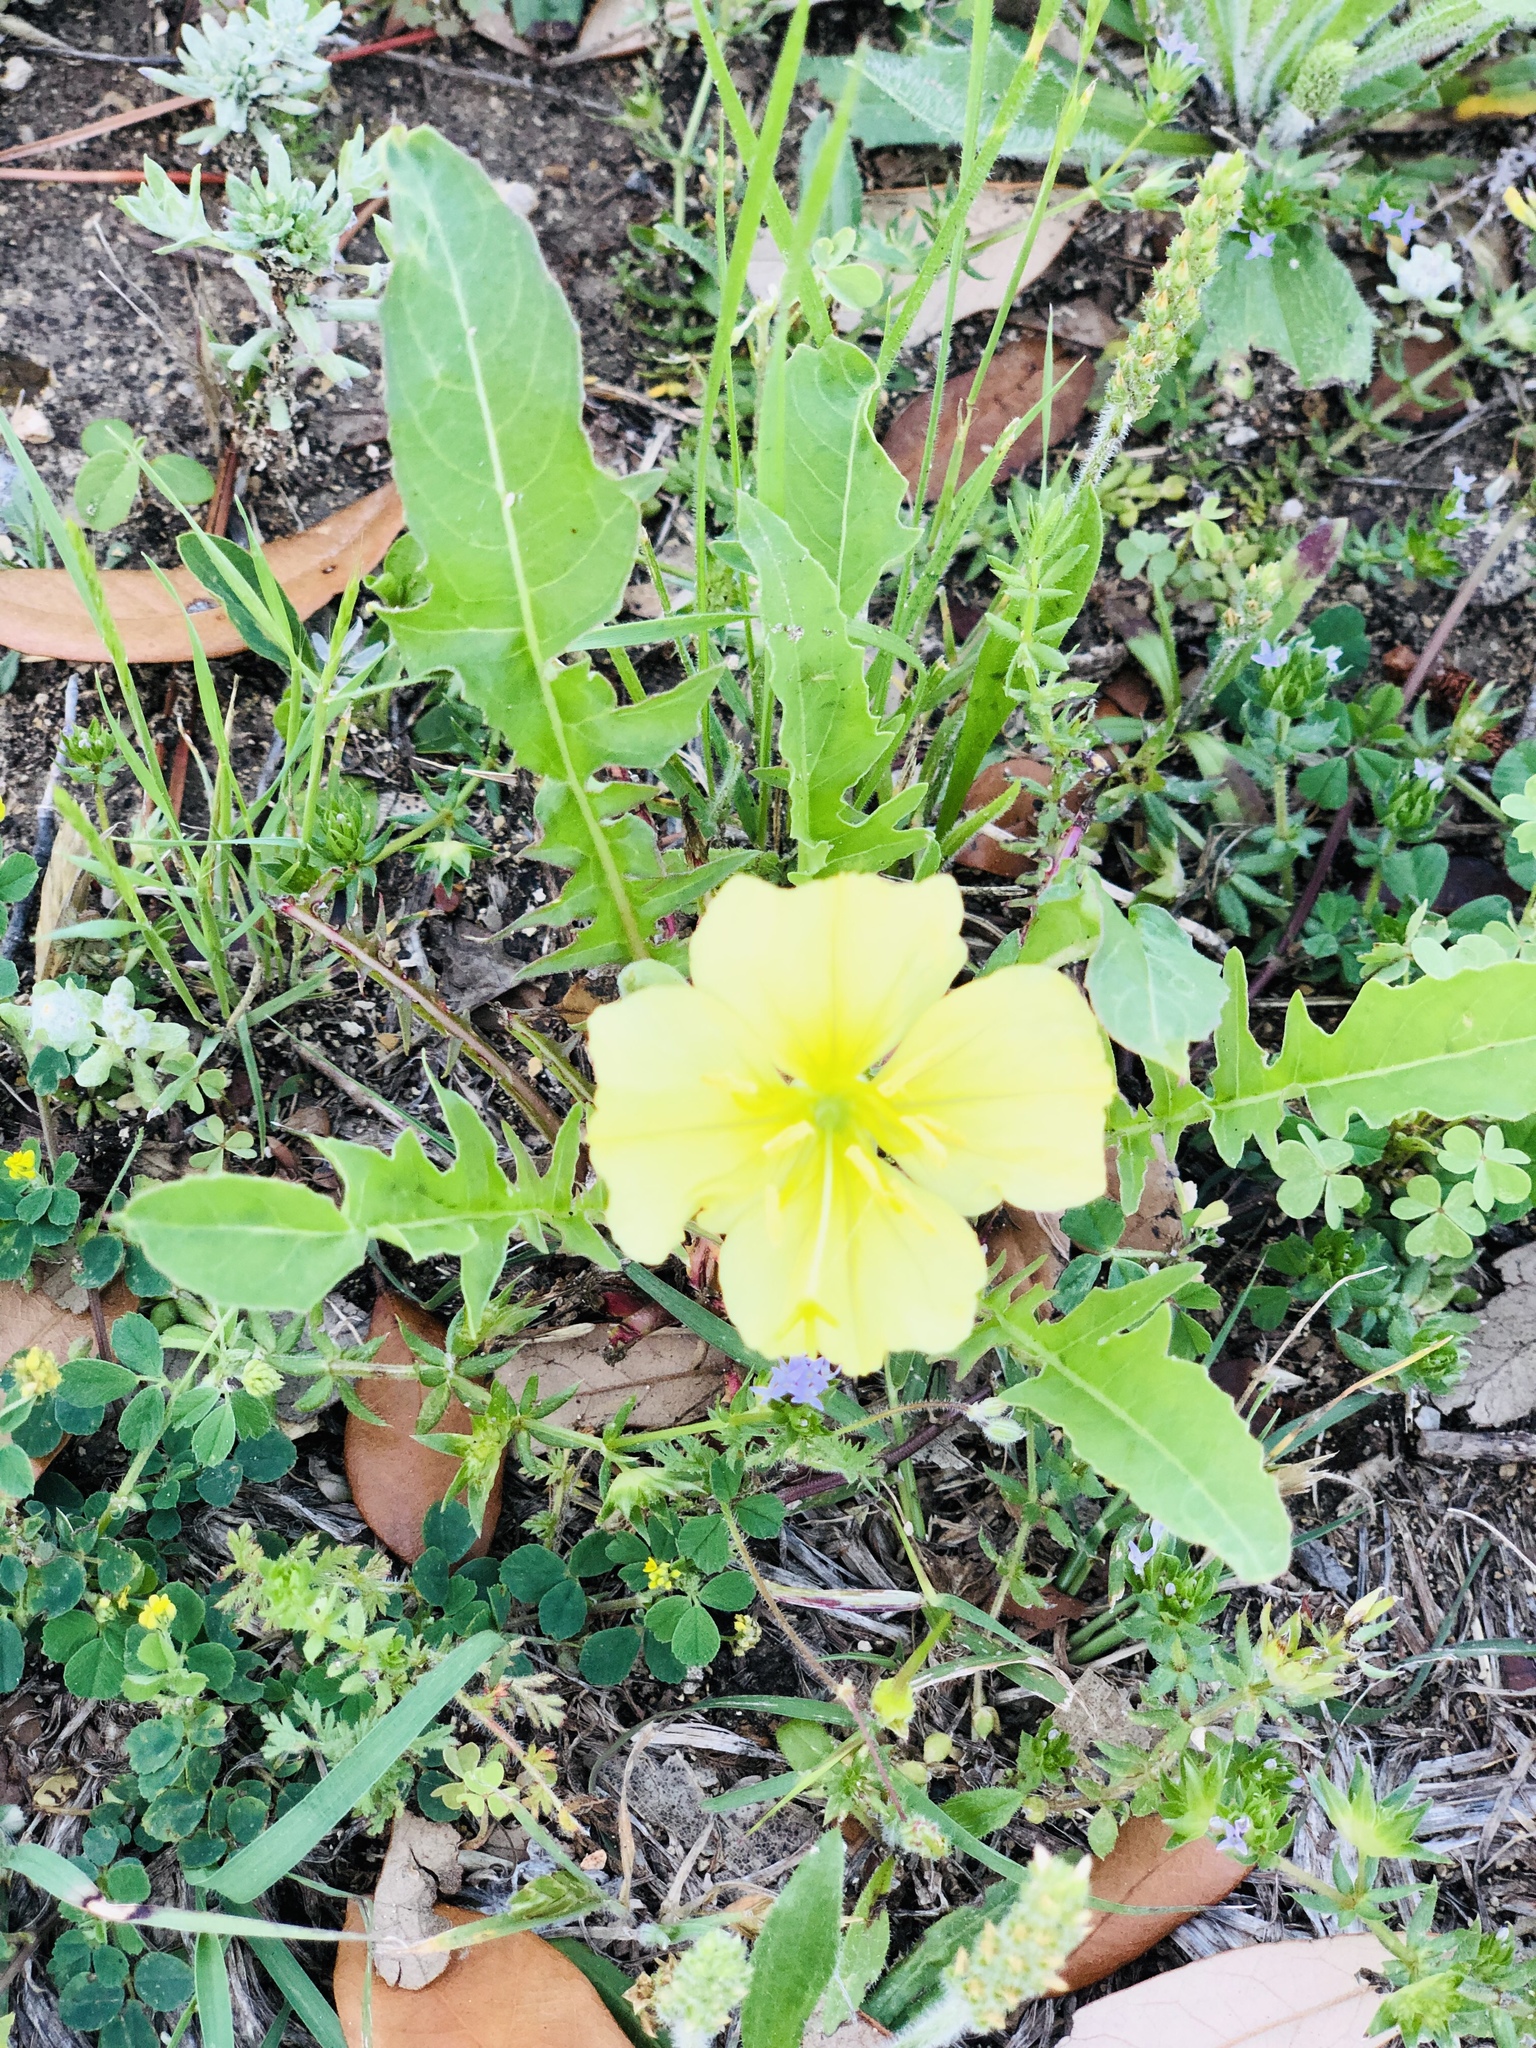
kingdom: Plantae
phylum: Tracheophyta
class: Magnoliopsida
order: Myrtales
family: Onagraceae
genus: Oenothera
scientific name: Oenothera triloba
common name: Sessile evening-primrose
